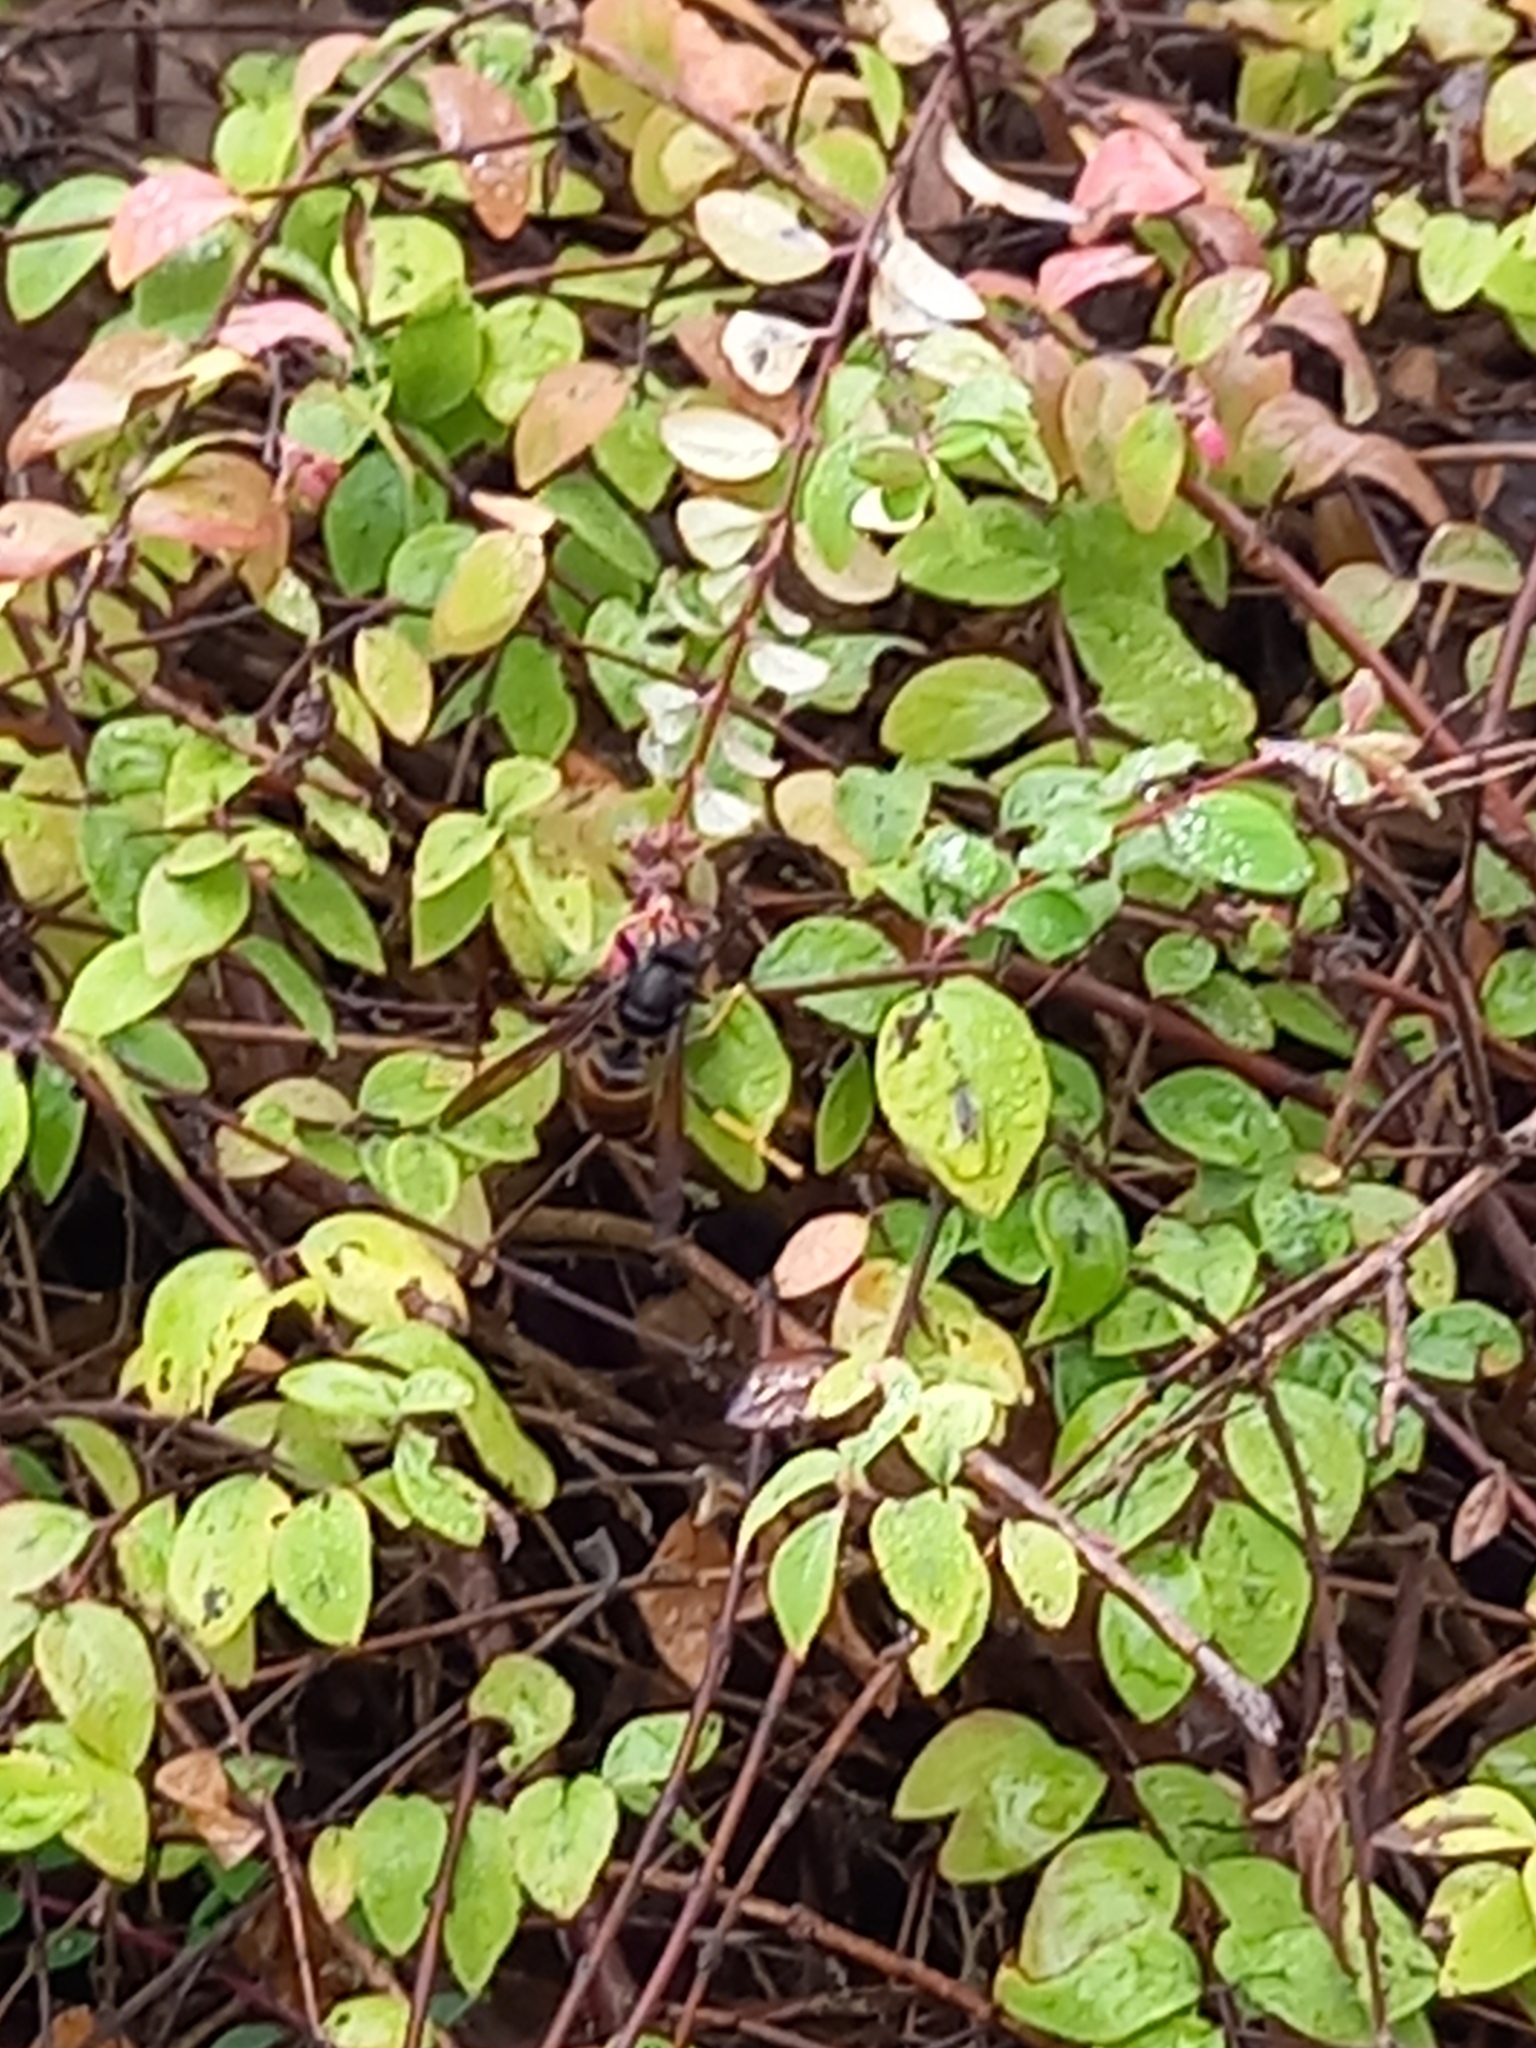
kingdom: Animalia
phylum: Arthropoda
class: Insecta
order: Hymenoptera
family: Vespidae
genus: Vespa
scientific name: Vespa velutina
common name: Asian hornet
